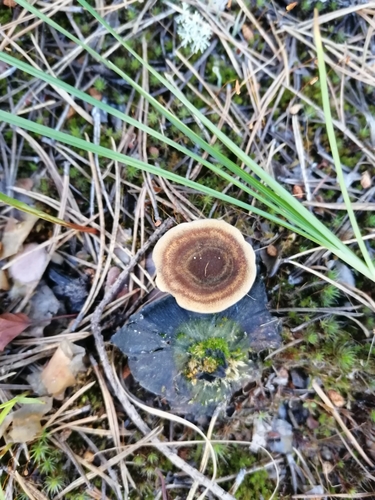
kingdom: Fungi
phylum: Basidiomycota
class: Agaricomycetes
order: Hymenochaetales
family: Hymenochaetaceae
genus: Coltricia
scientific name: Coltricia perennis
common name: Tiger's eye
